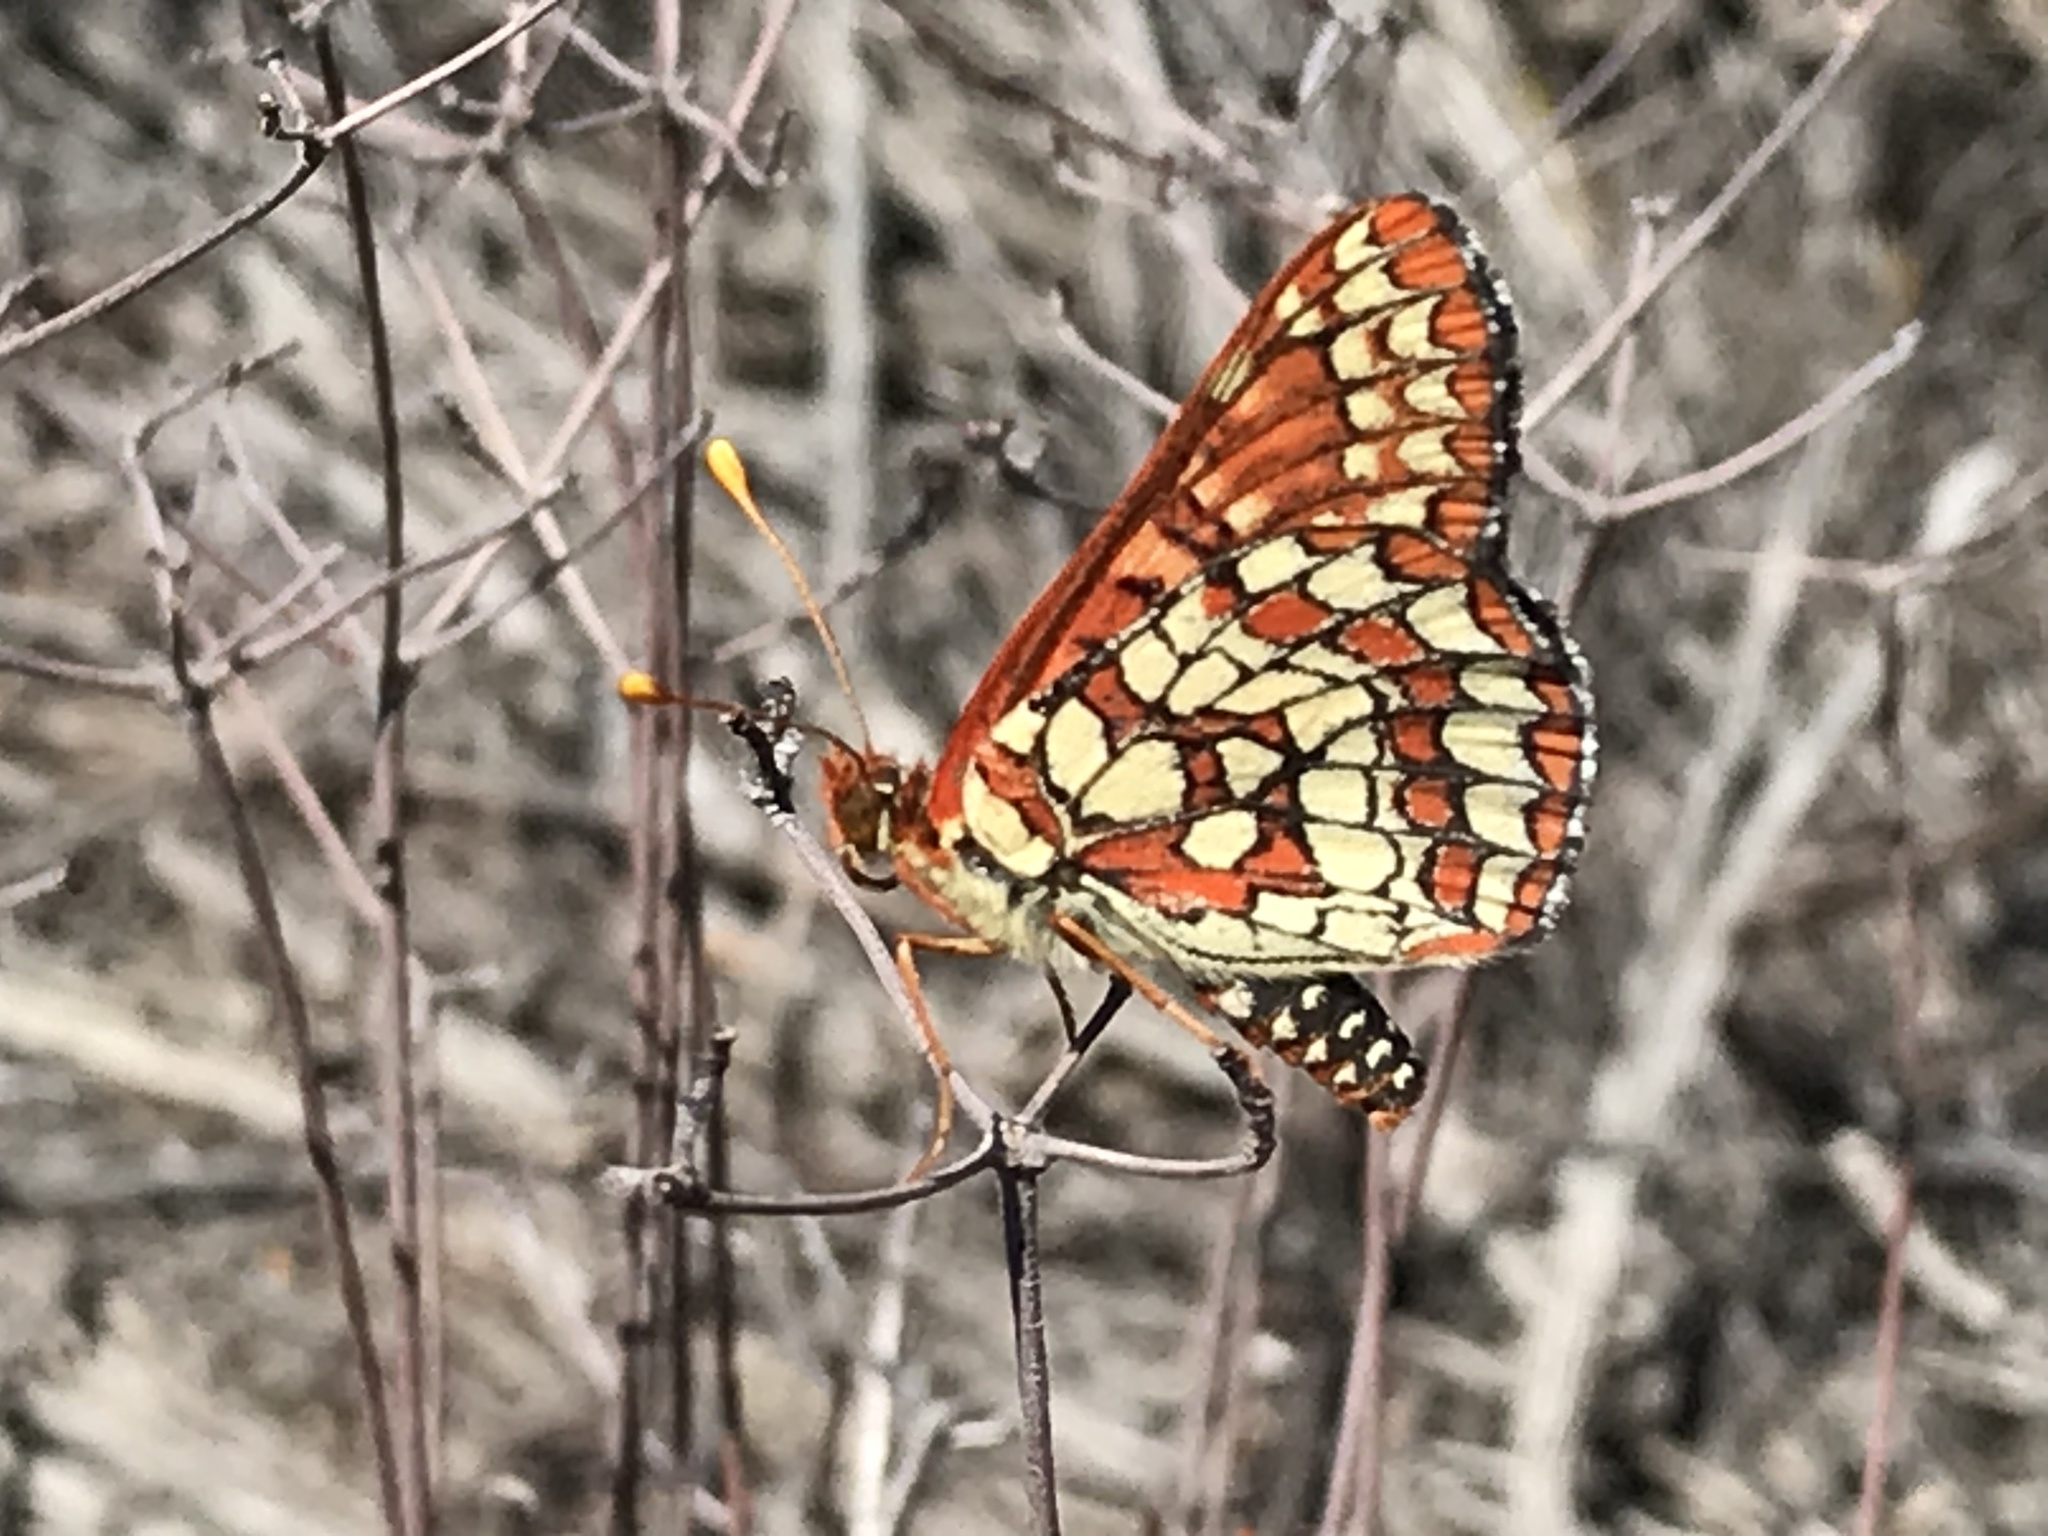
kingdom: Animalia
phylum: Arthropoda
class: Insecta
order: Lepidoptera
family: Nymphalidae
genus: Occidryas
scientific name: Occidryas chalcedona
